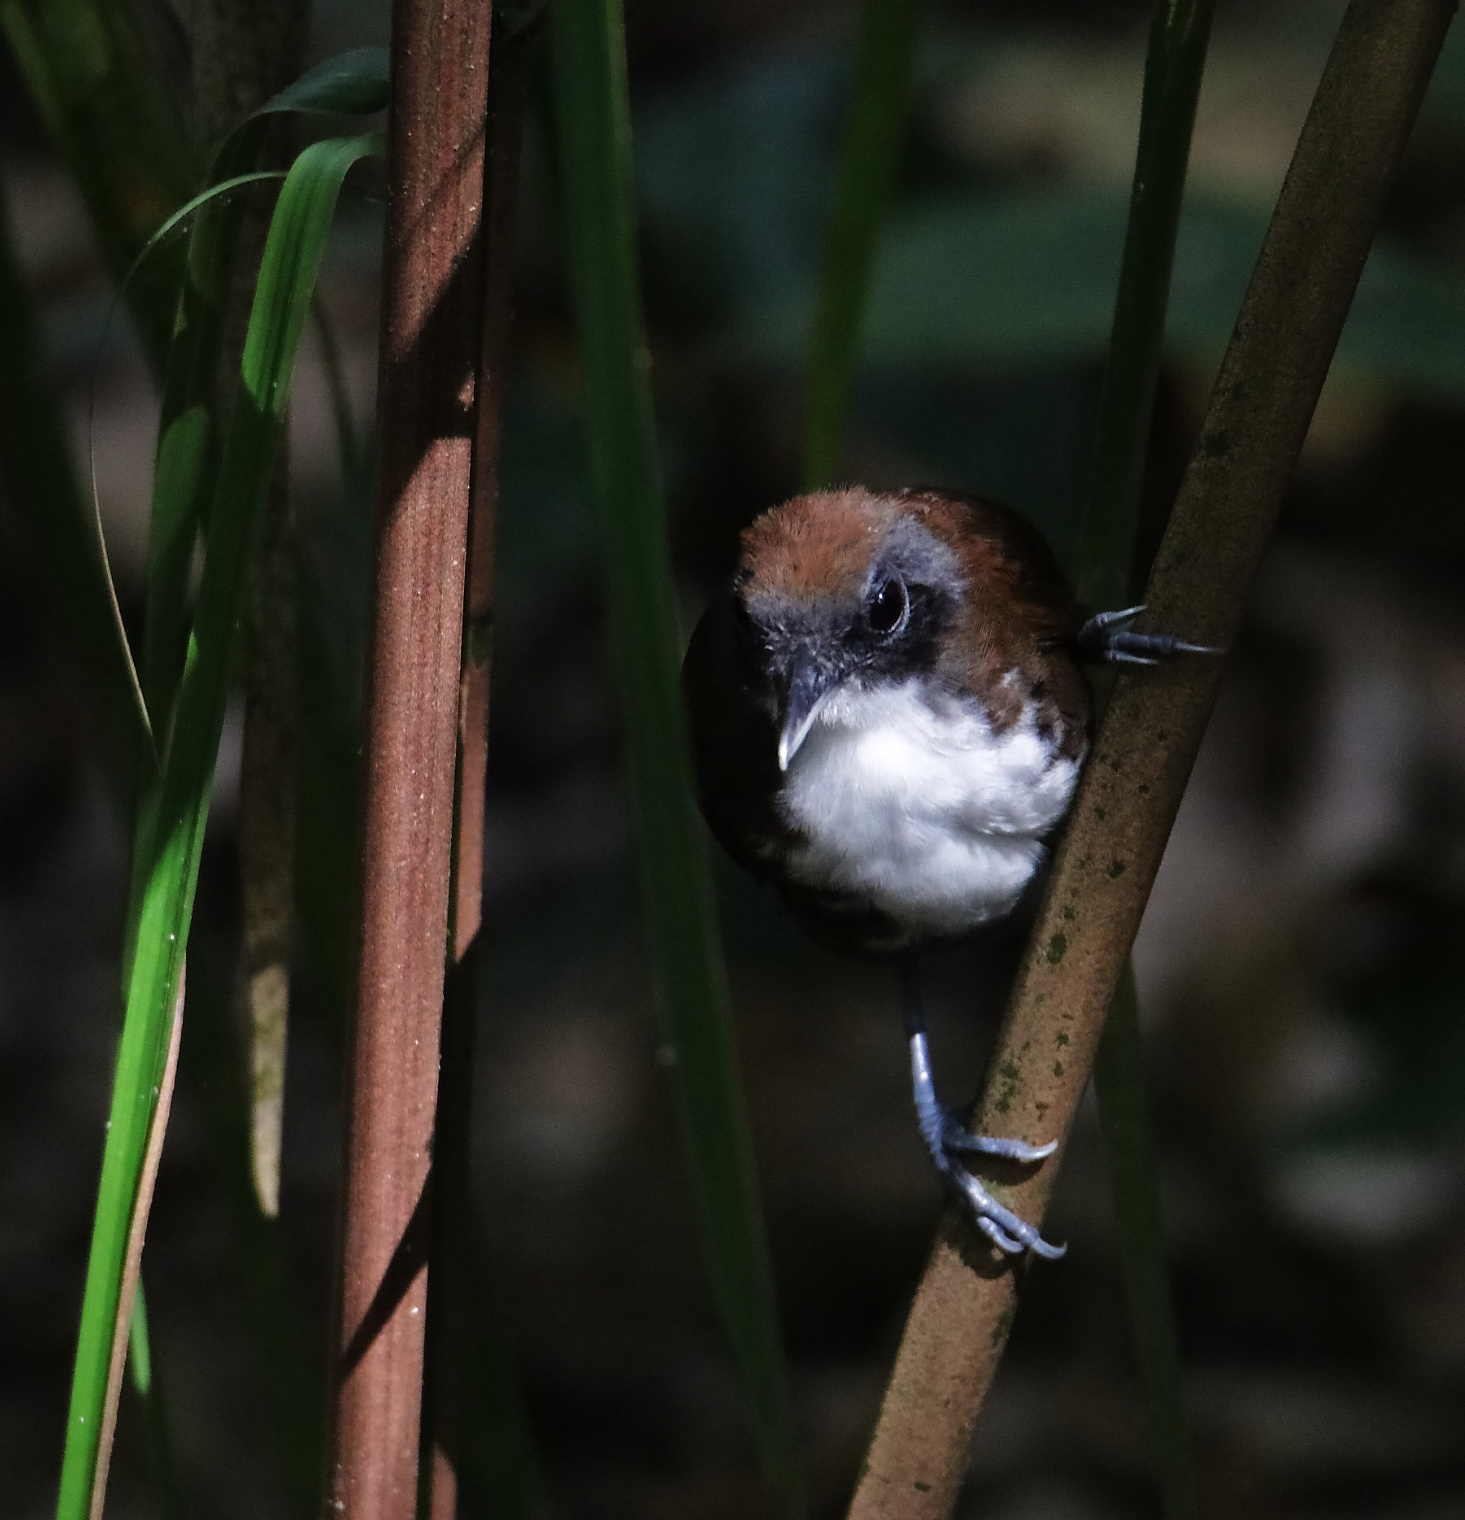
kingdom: Animalia
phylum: Chordata
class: Aves
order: Passeriformes
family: Thamnophilidae
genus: Gymnopithys
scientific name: Gymnopithys leucaspis
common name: White-cheeked antbird
